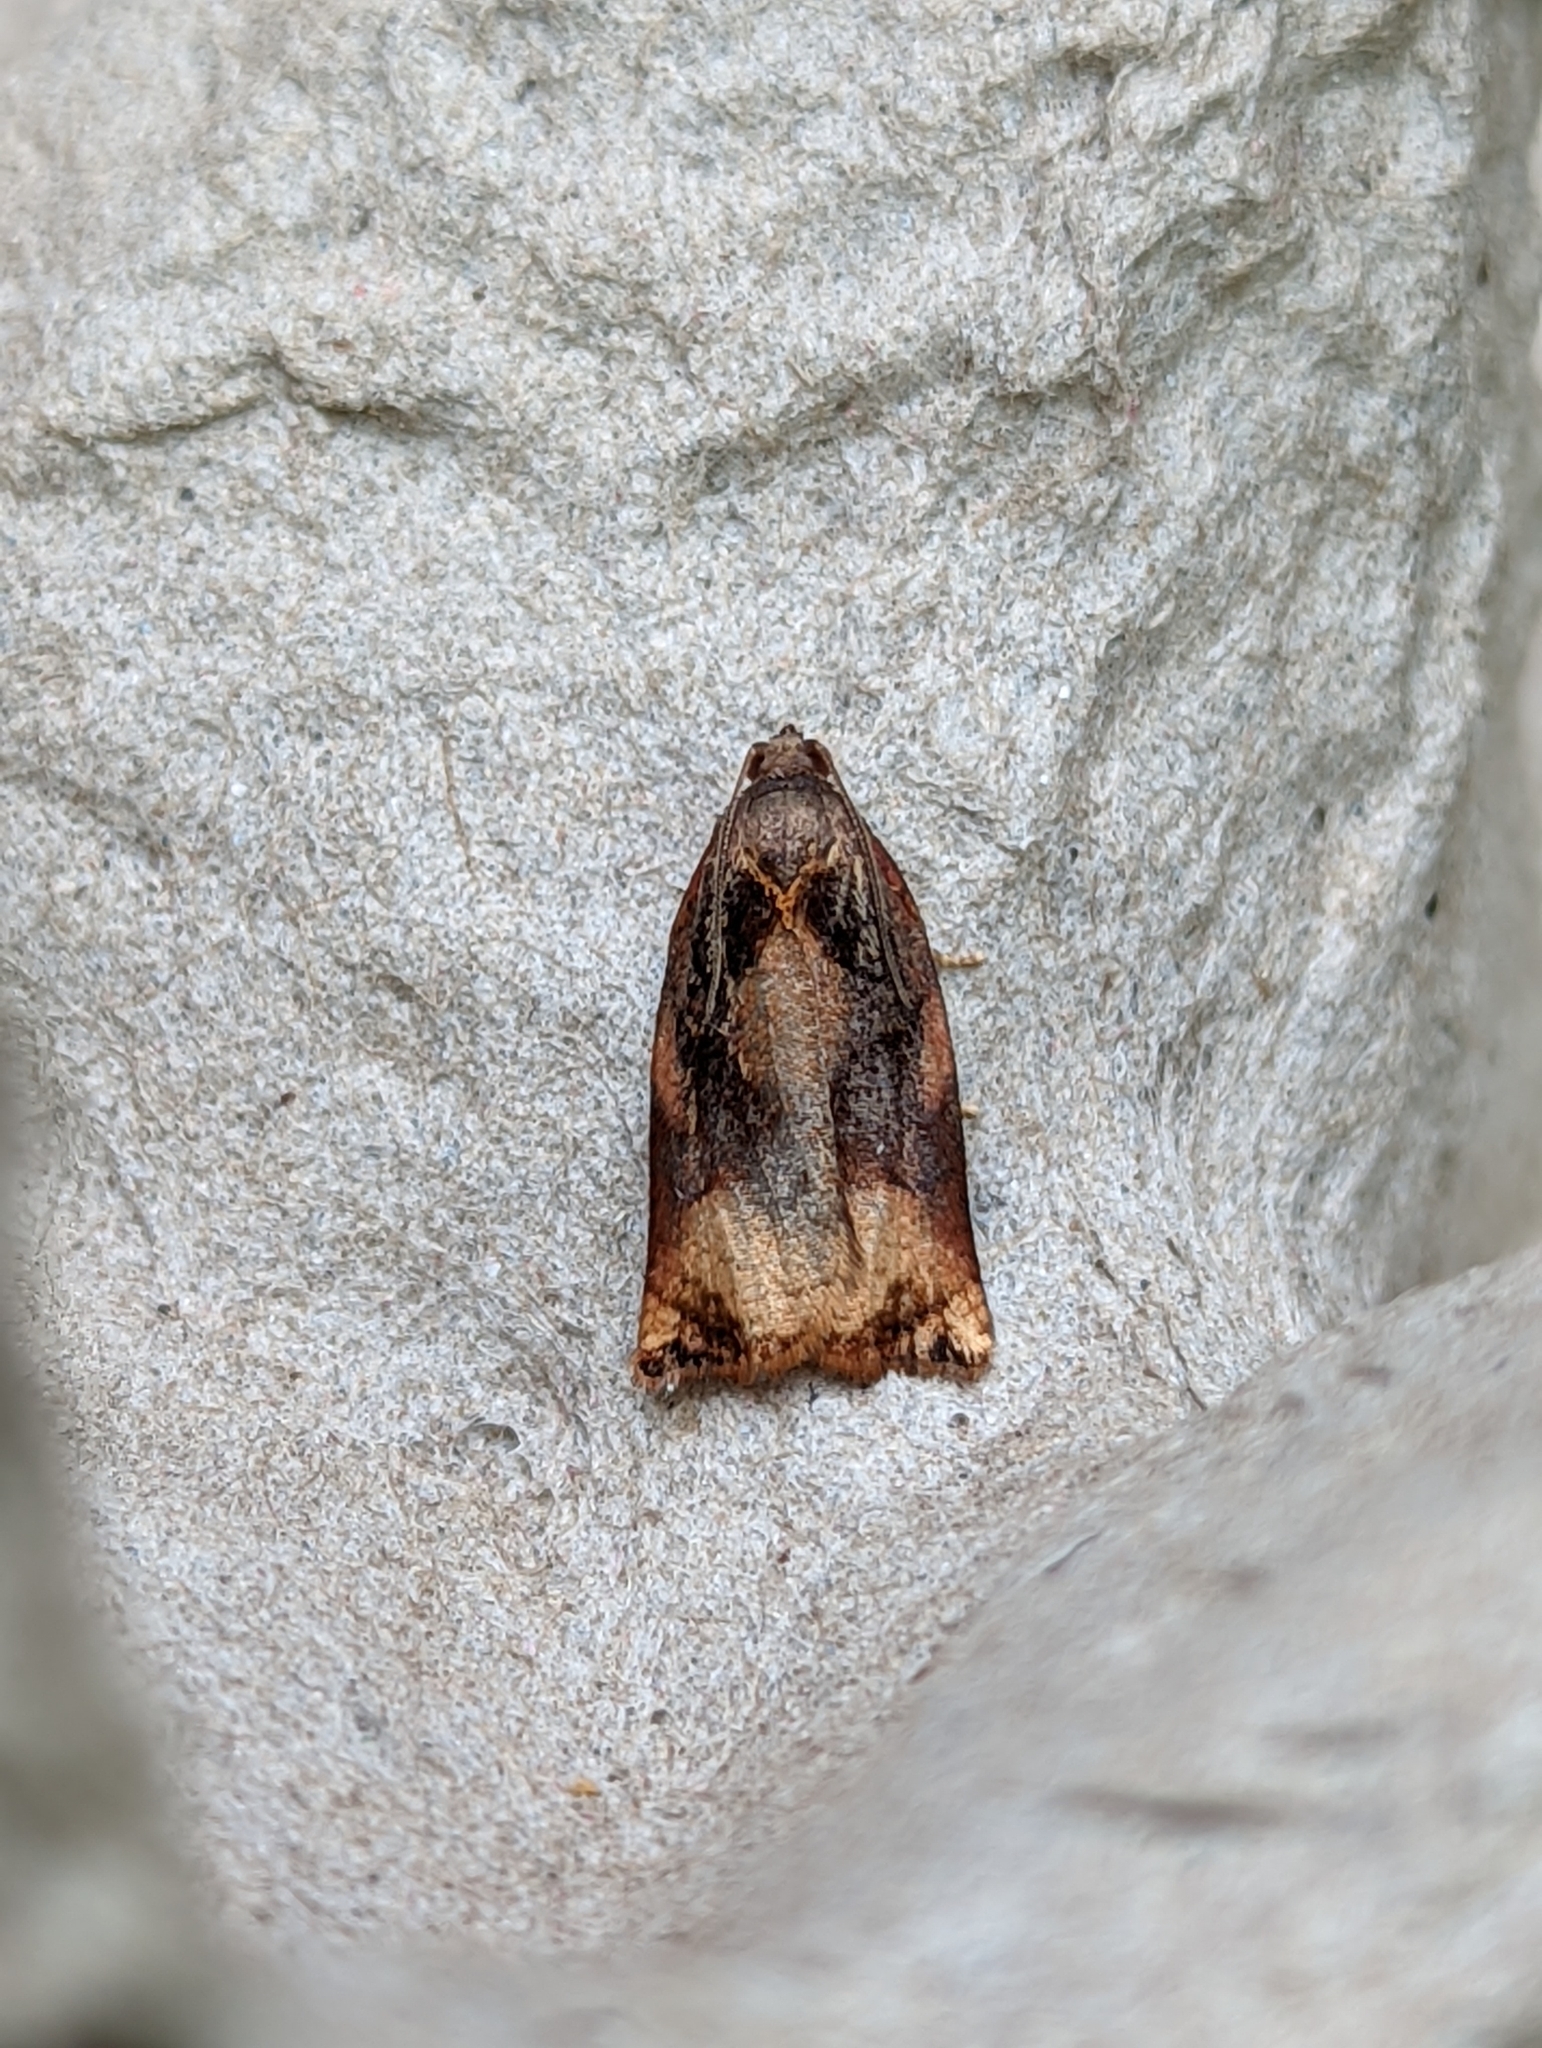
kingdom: Animalia
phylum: Arthropoda
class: Insecta
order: Lepidoptera
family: Tortricidae
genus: Archips
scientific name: Archips podana
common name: Large fruit-tree tortrix
